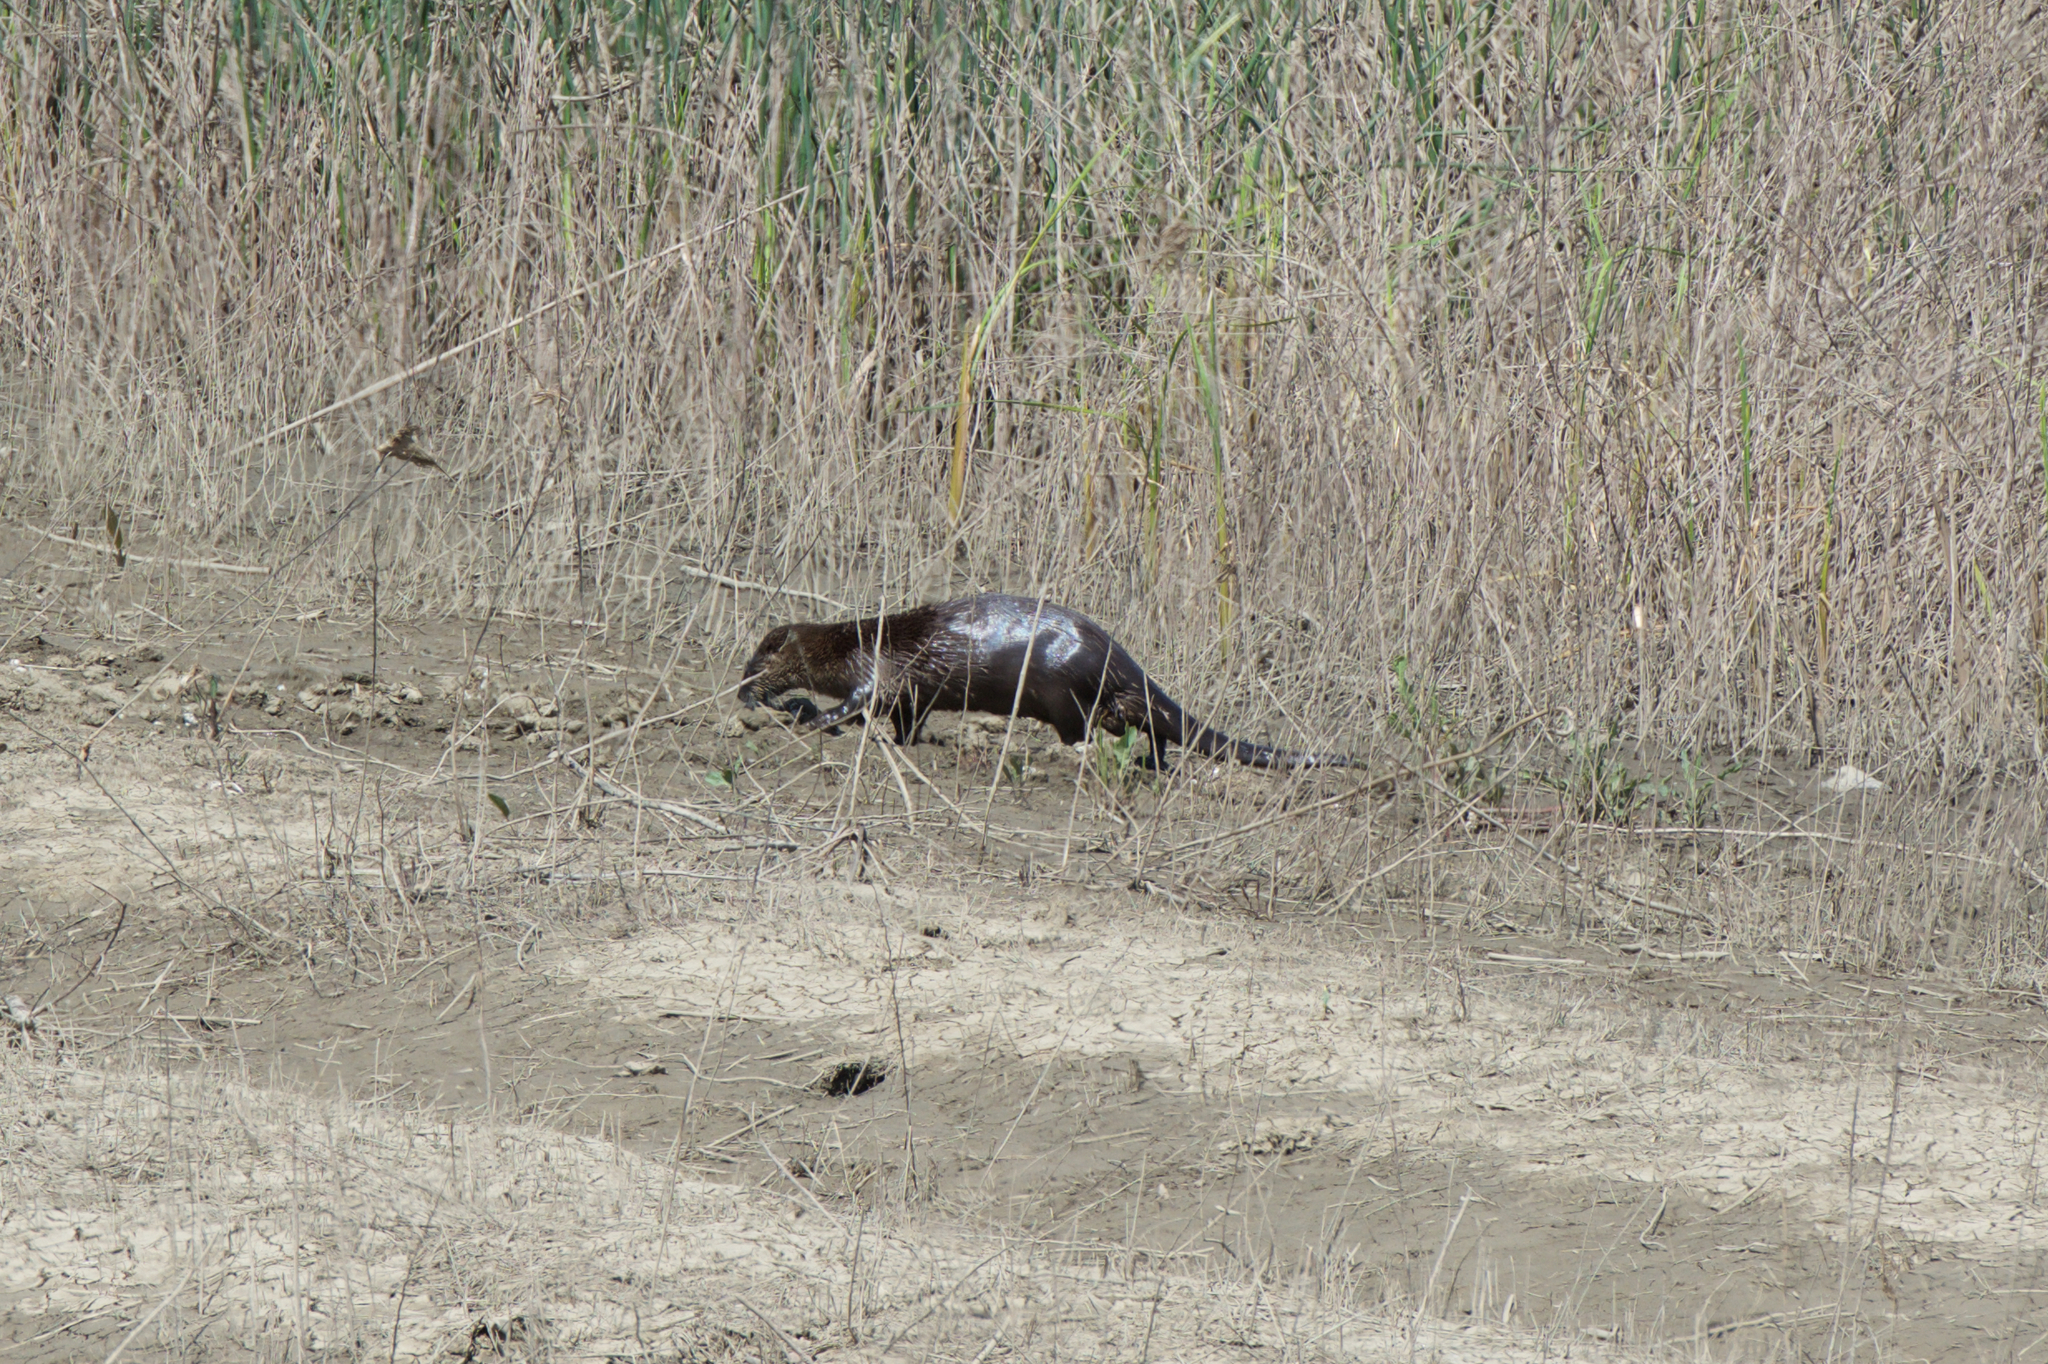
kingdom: Animalia
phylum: Chordata
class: Mammalia
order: Carnivora
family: Mustelidae
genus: Lontra
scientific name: Lontra canadensis
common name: North american river otter
